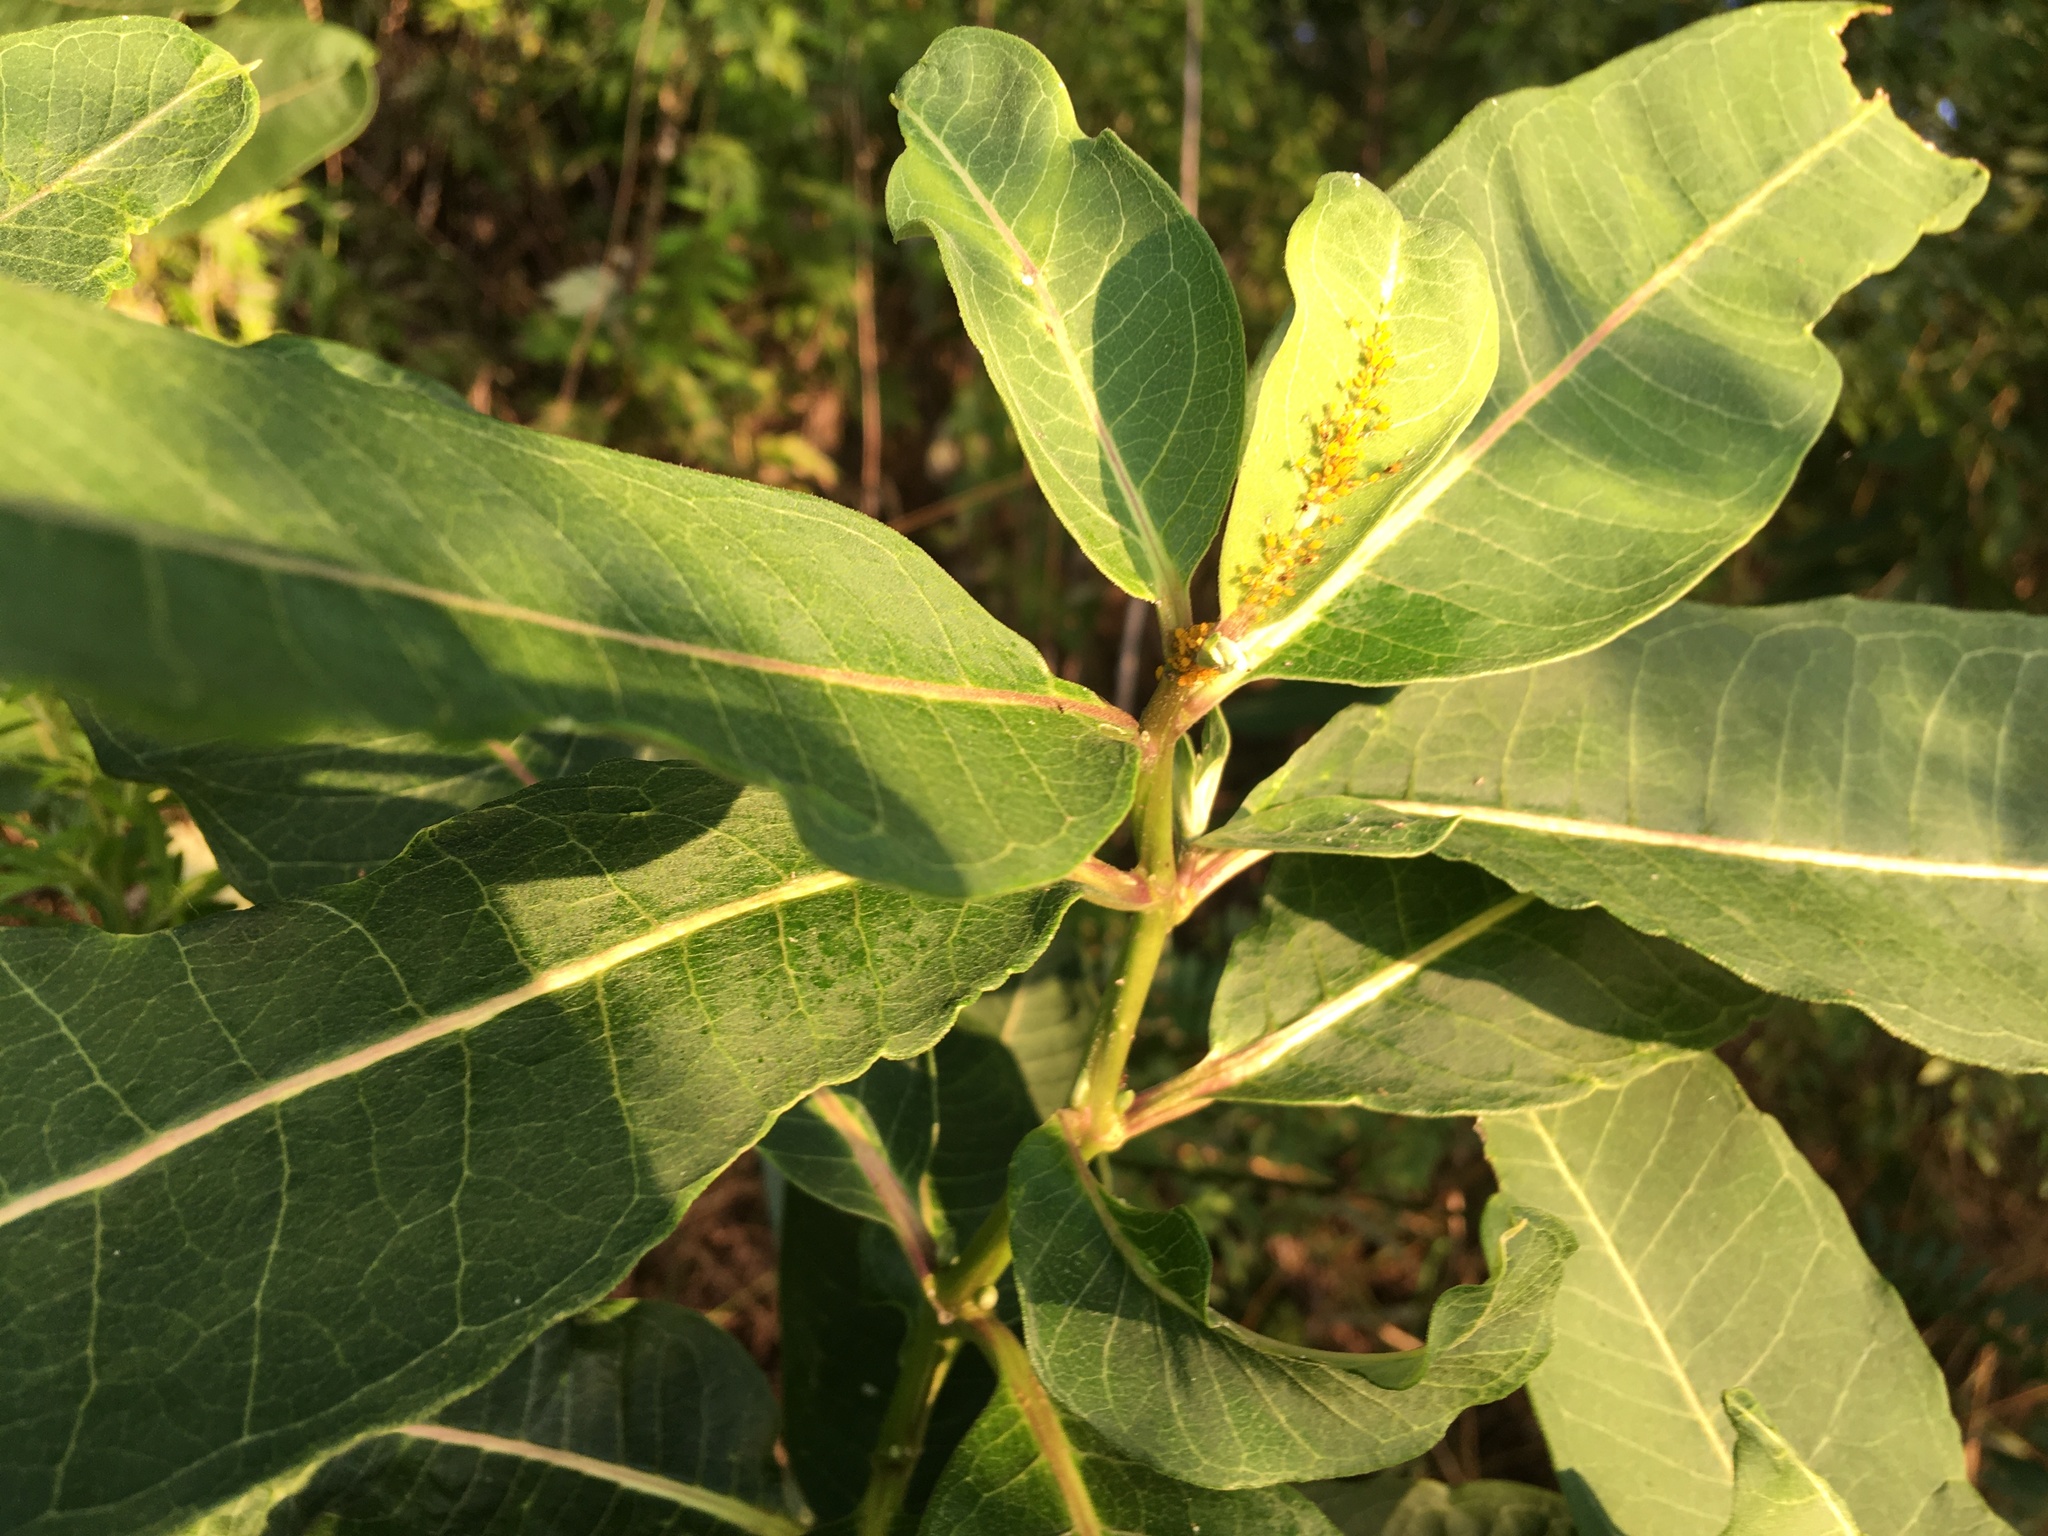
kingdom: Plantae
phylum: Tracheophyta
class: Magnoliopsida
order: Gentianales
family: Apocynaceae
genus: Asclepias
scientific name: Asclepias syriaca
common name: Common milkweed
